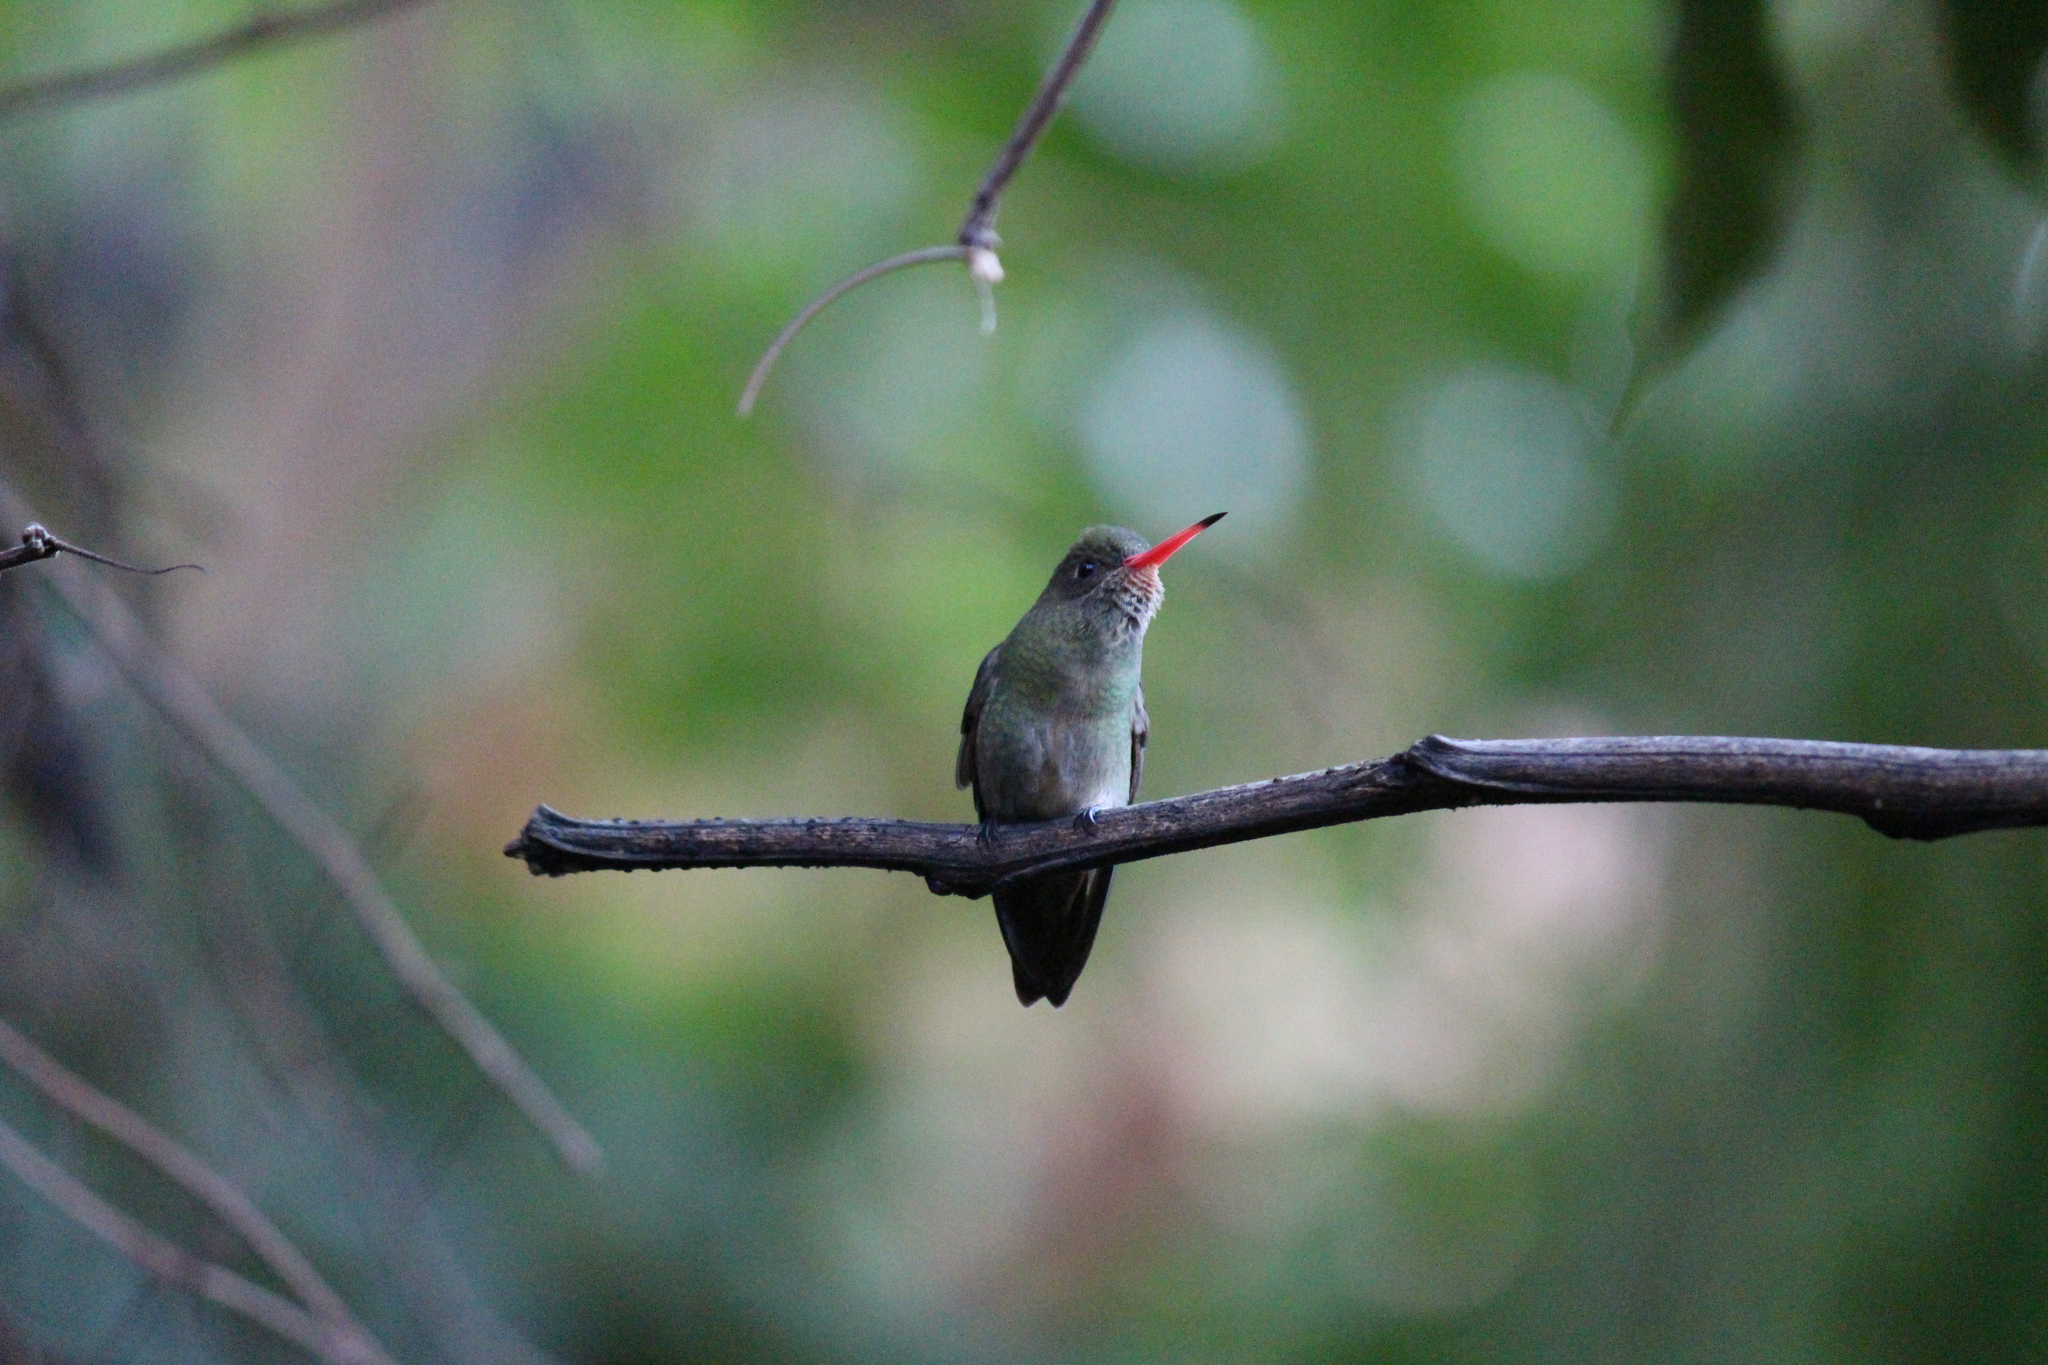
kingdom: Animalia
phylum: Chordata
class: Aves
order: Apodiformes
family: Trochilidae
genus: Hylocharis
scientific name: Hylocharis chrysura
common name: Gilded sapphire
